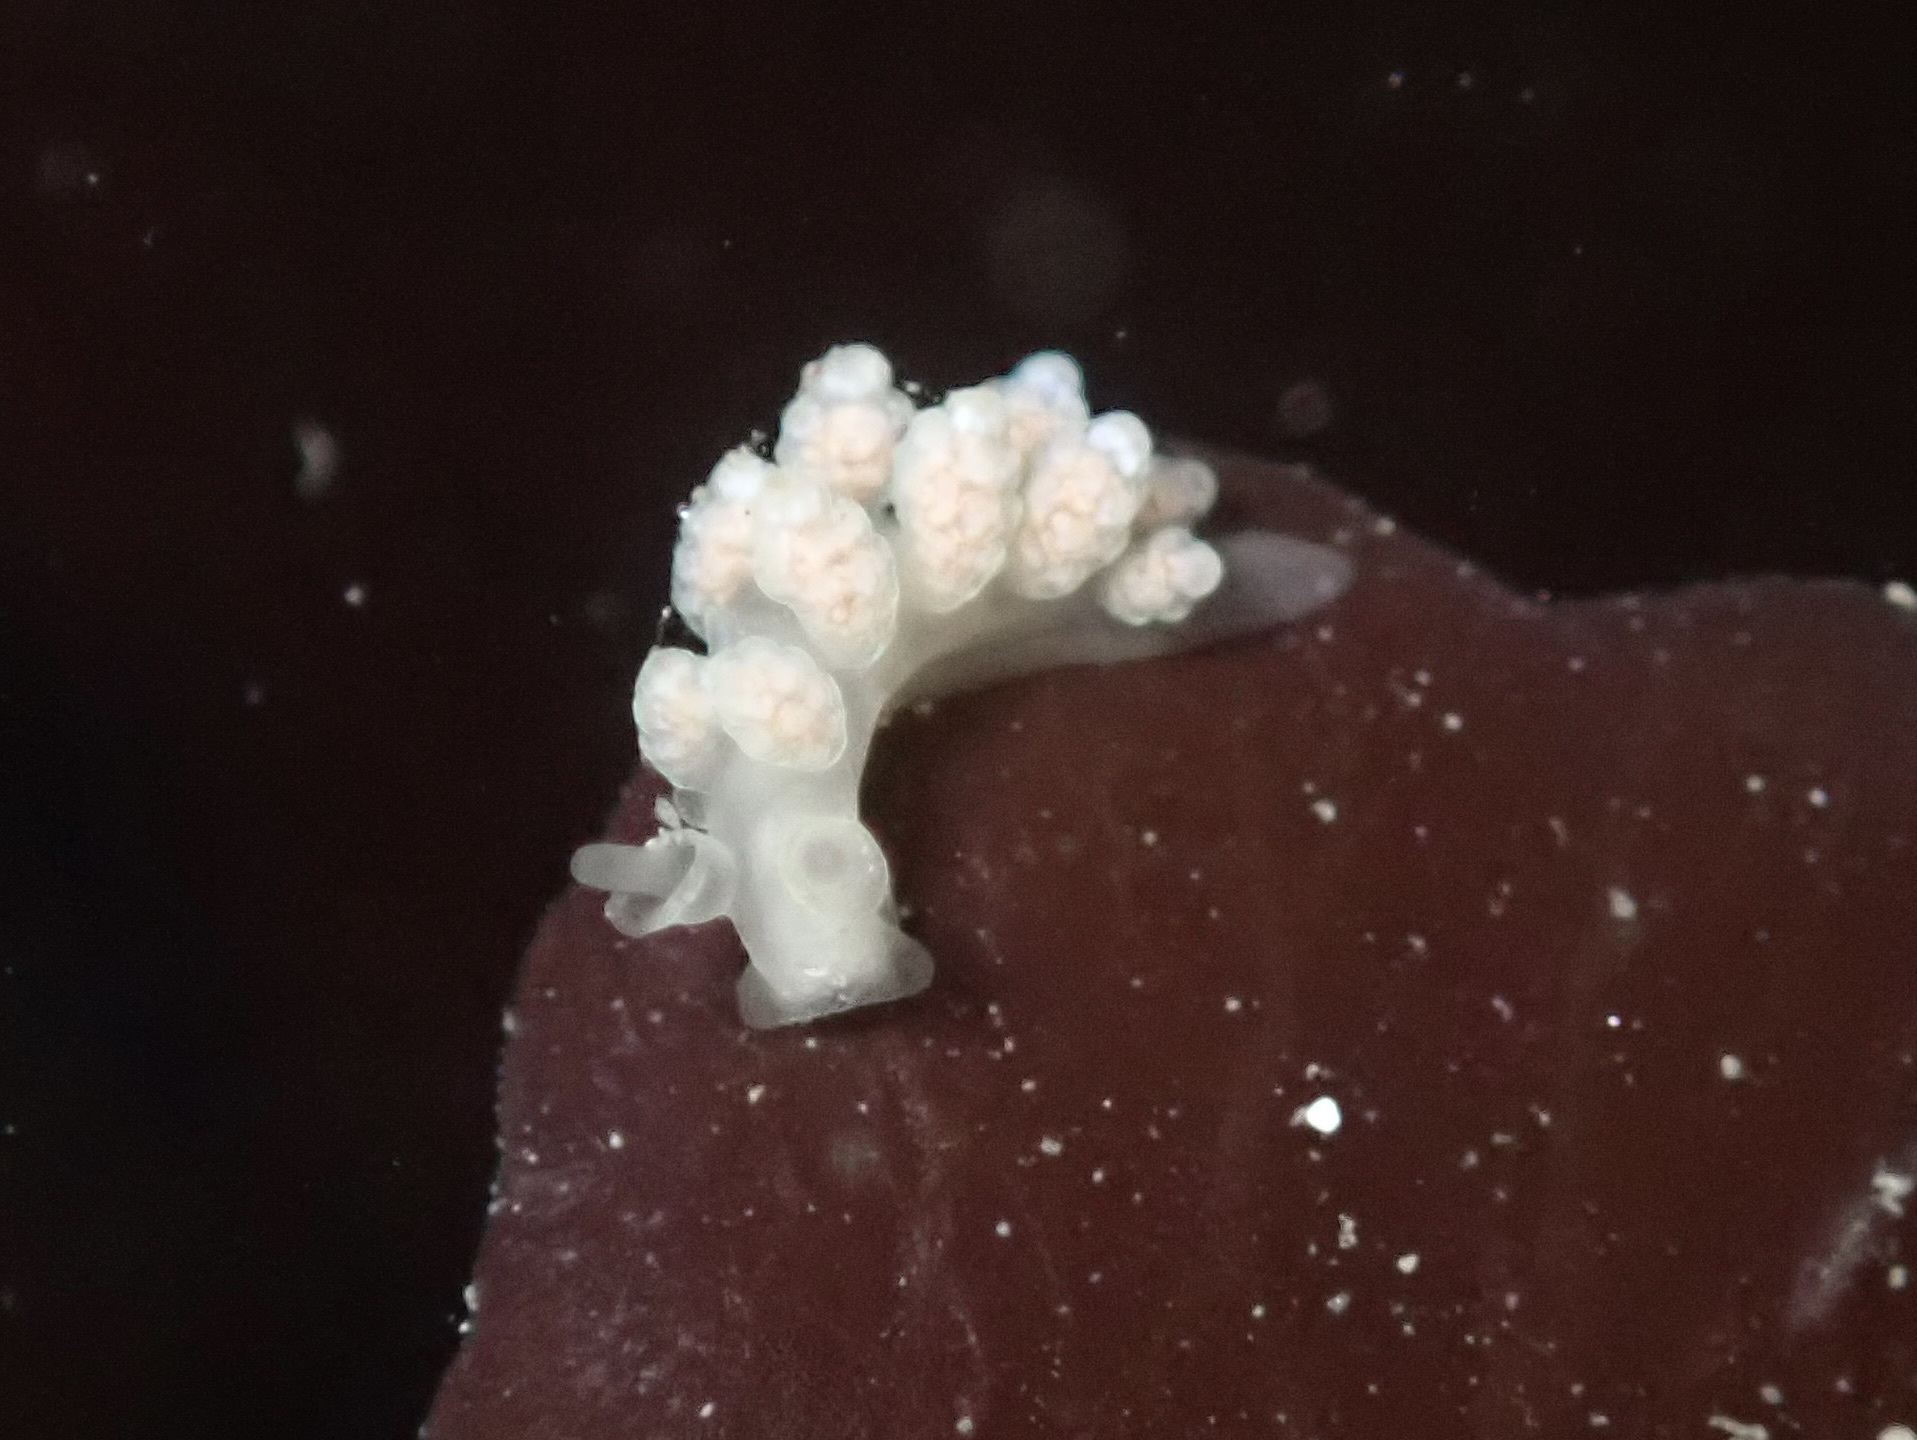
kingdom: Animalia
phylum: Mollusca
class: Gastropoda
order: Nudibranchia
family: Dotidae
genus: Doto
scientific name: Doto amyra
